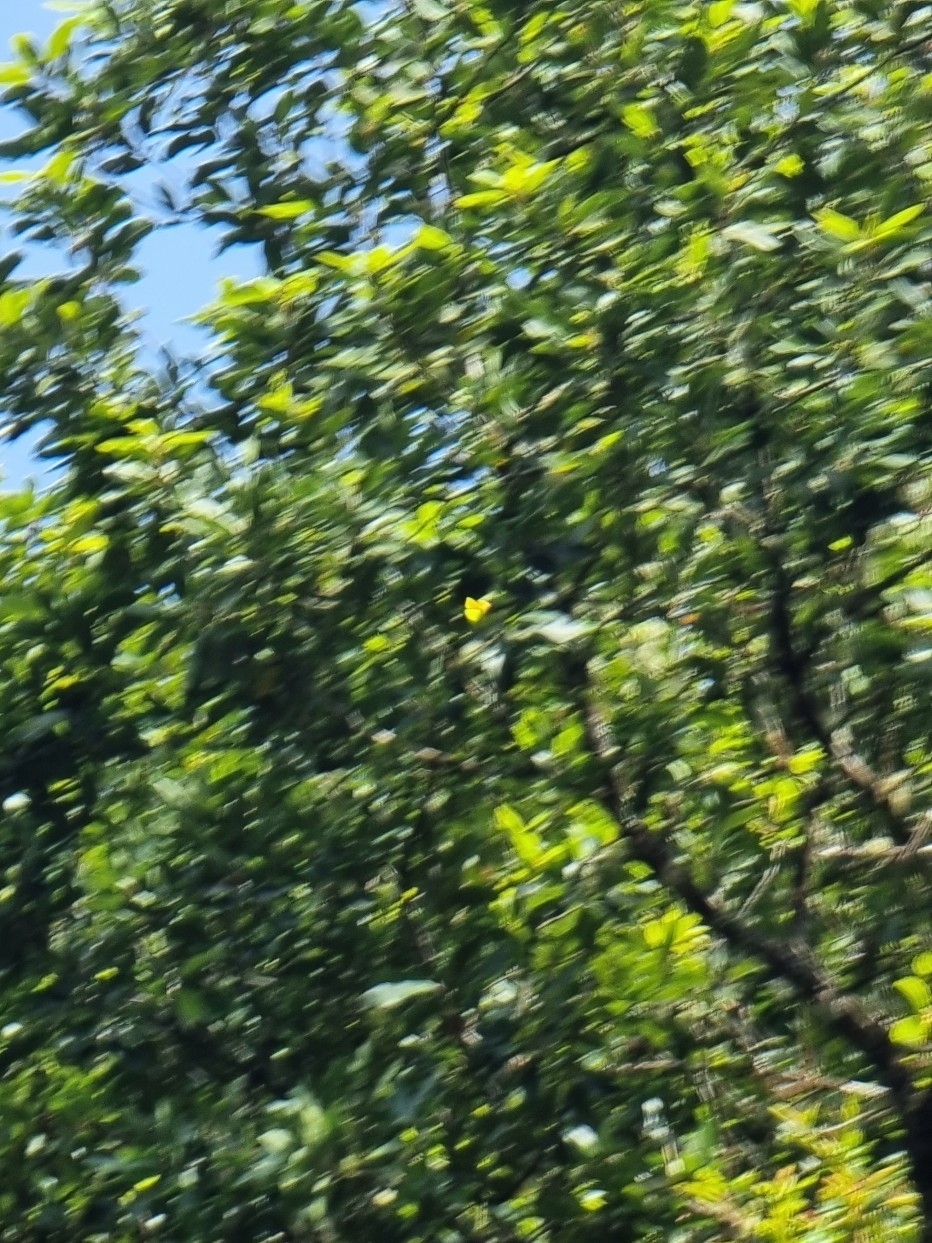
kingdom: Animalia
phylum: Arthropoda
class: Insecta
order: Lepidoptera
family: Pieridae
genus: Gonepteryx
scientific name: Gonepteryx maderensis
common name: Madeiran brimstone
